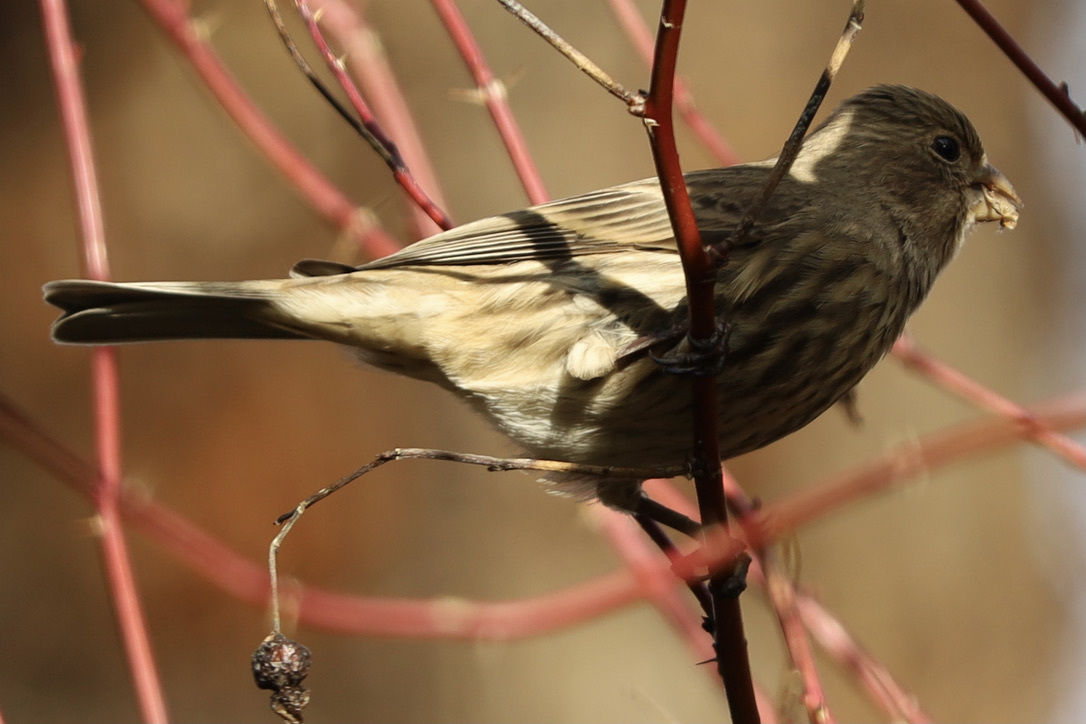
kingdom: Animalia
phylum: Chordata
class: Aves
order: Passeriformes
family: Fringillidae
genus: Haemorhous
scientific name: Haemorhous mexicanus
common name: House finch
